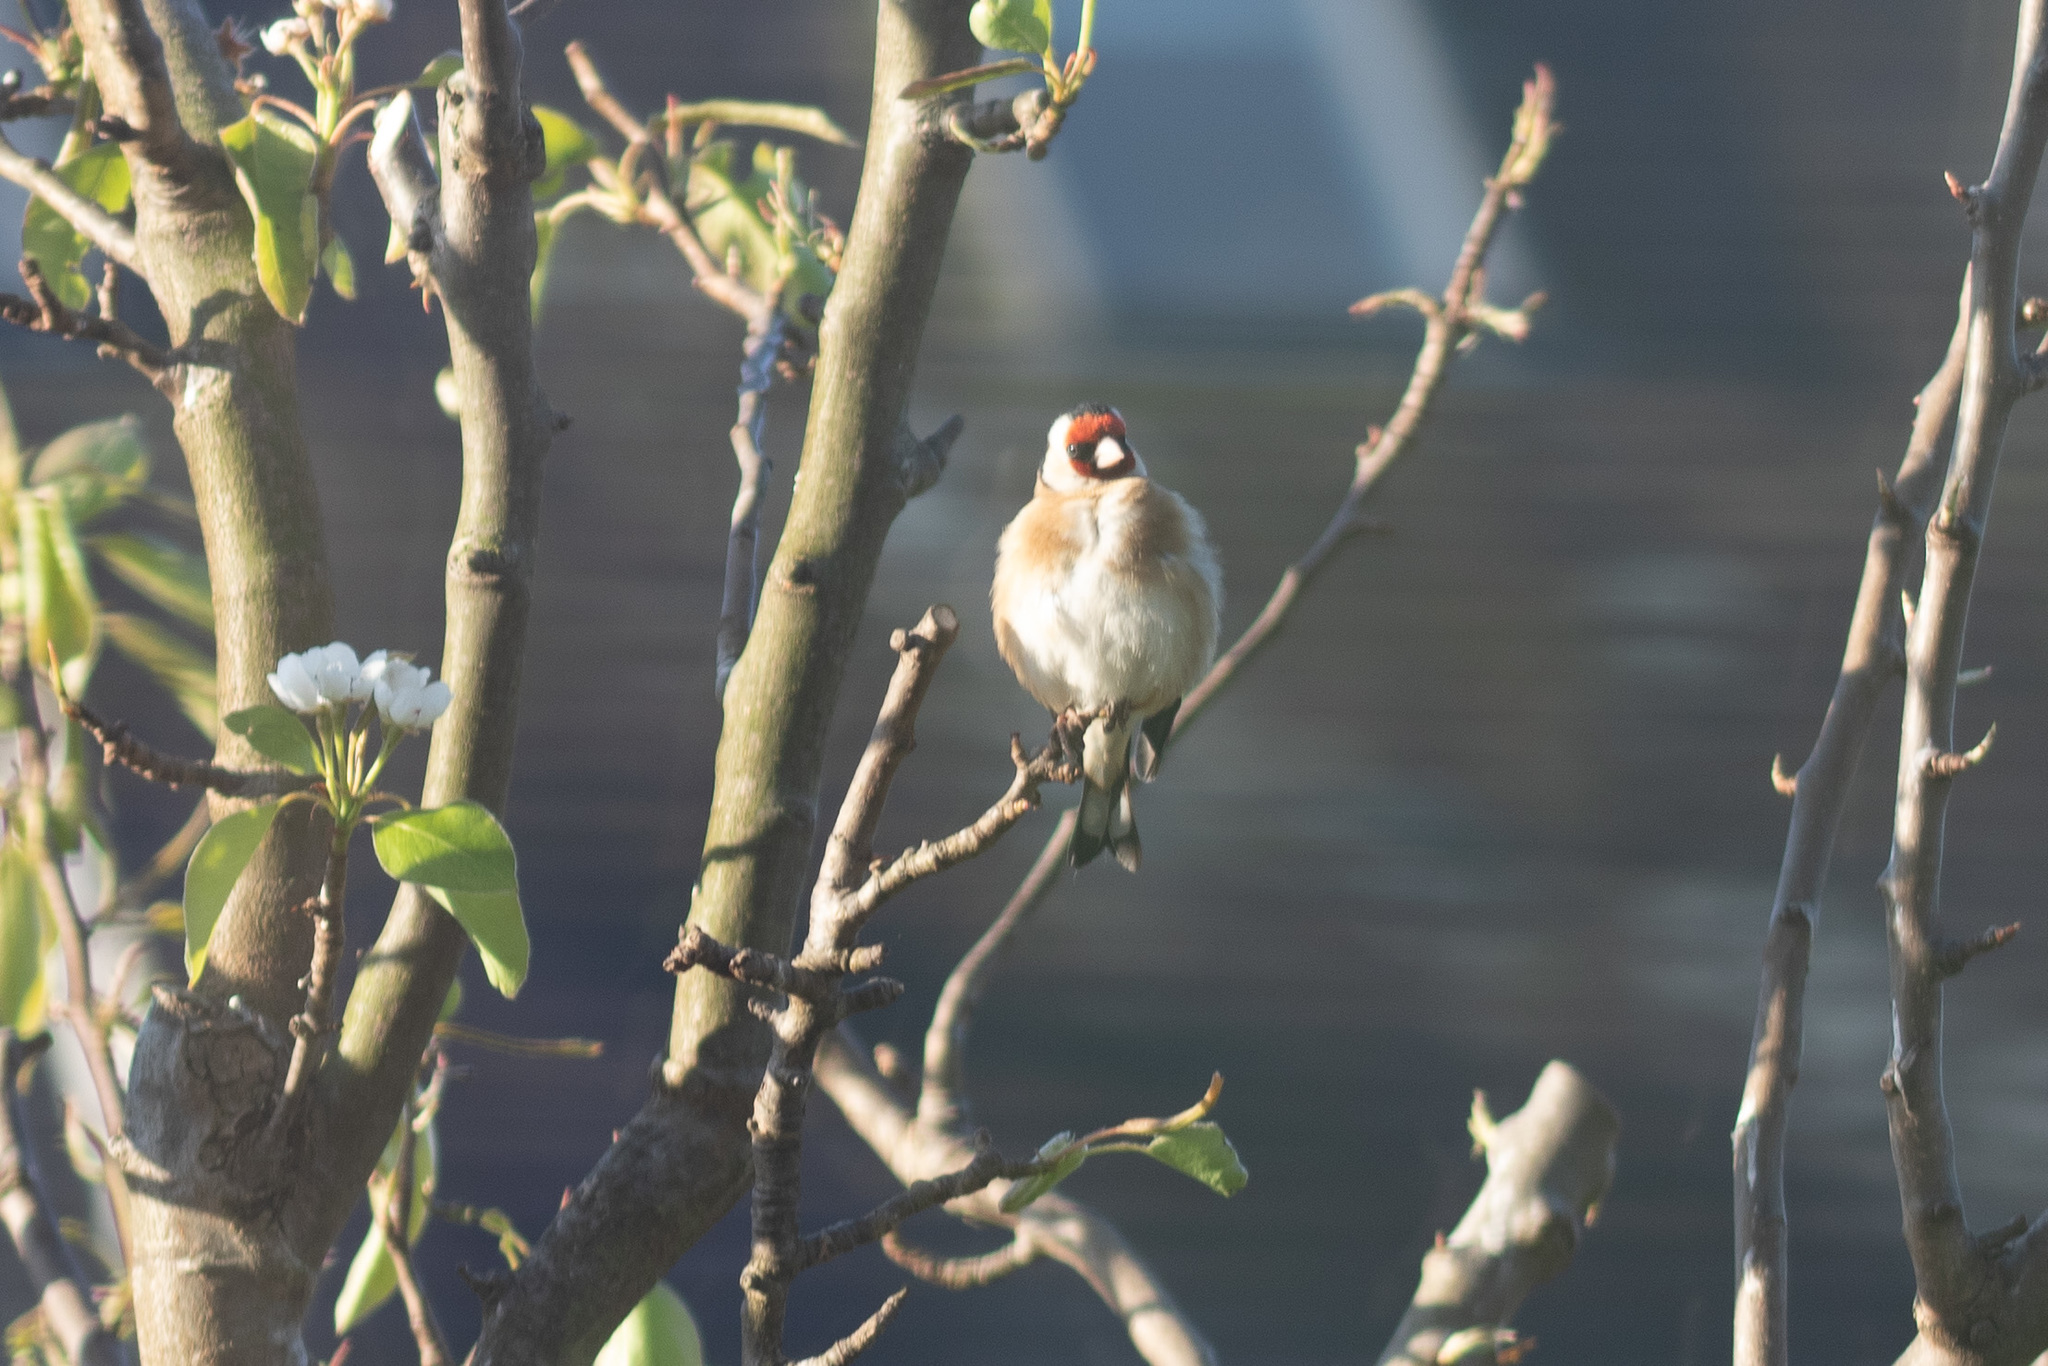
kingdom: Animalia
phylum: Chordata
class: Aves
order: Passeriformes
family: Fringillidae
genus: Carduelis
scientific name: Carduelis carduelis
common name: European goldfinch
